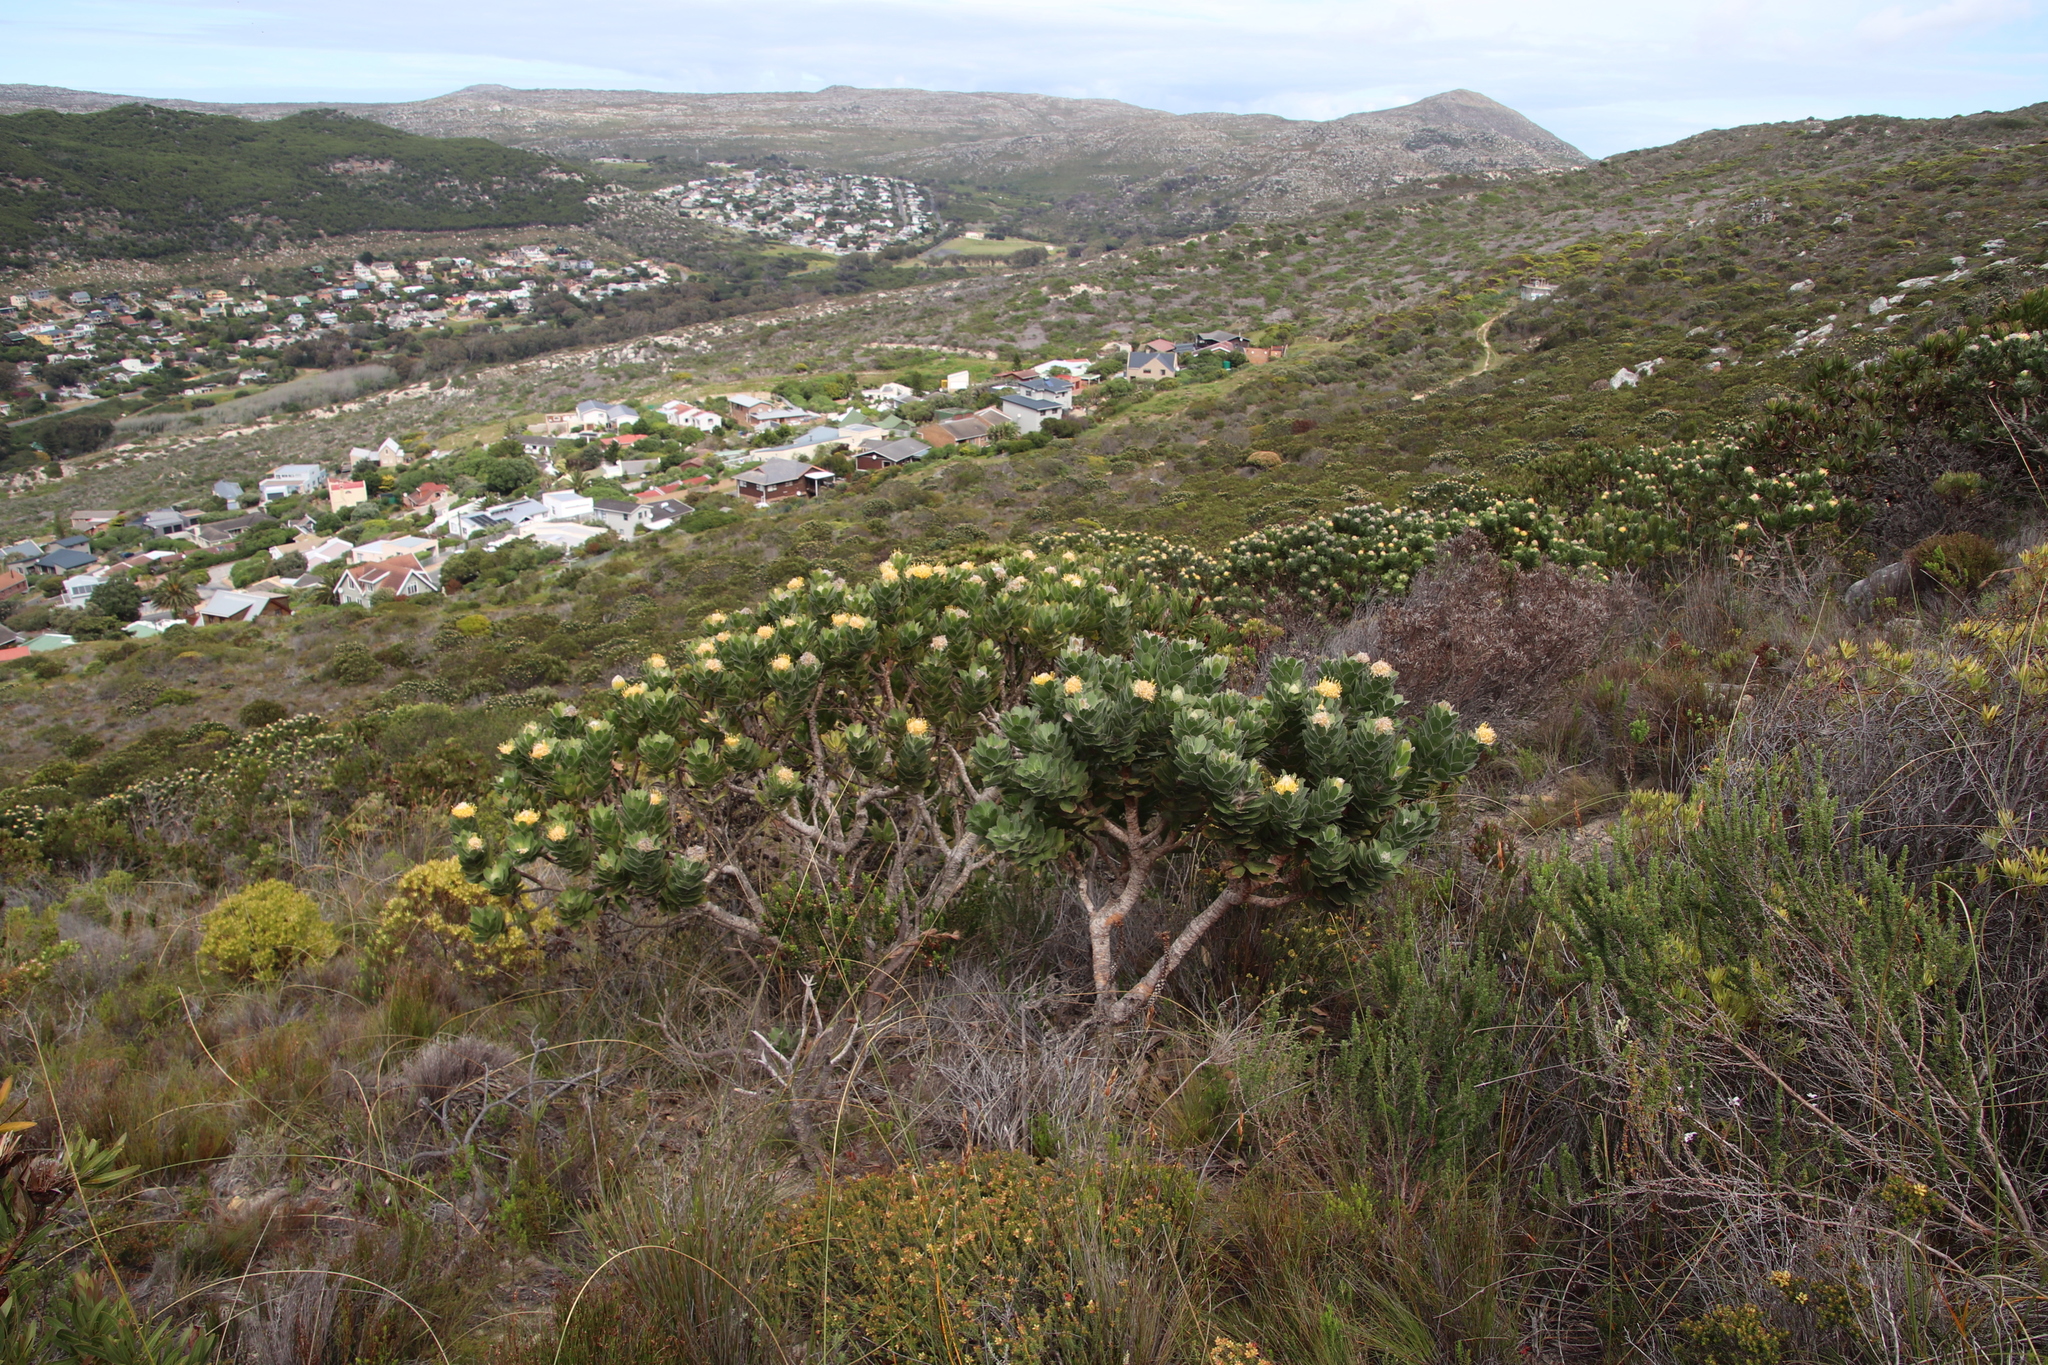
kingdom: Plantae
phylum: Tracheophyta
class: Magnoliopsida
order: Proteales
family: Proteaceae
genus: Leucospermum
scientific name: Leucospermum conocarpodendron
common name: Tree pincushion
